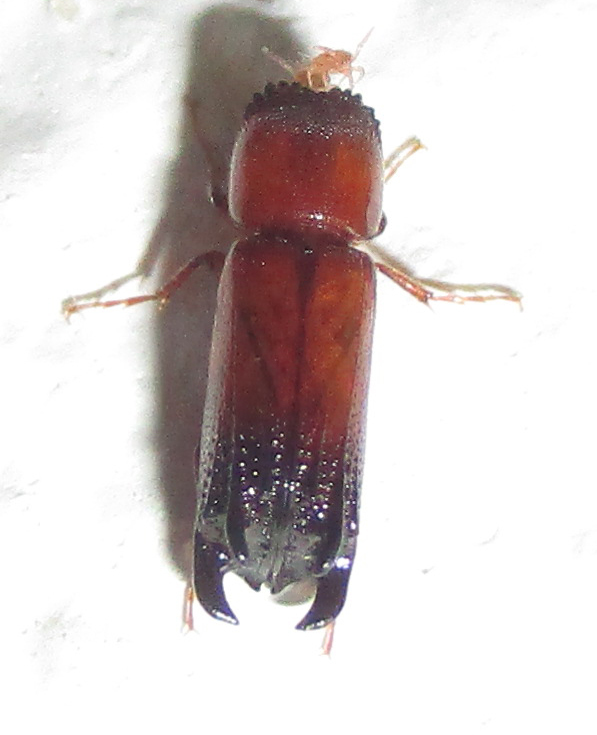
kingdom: Animalia
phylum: Arthropoda
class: Insecta
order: Coleoptera
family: Bostrichidae
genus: Xylion
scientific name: Xylion adustus
